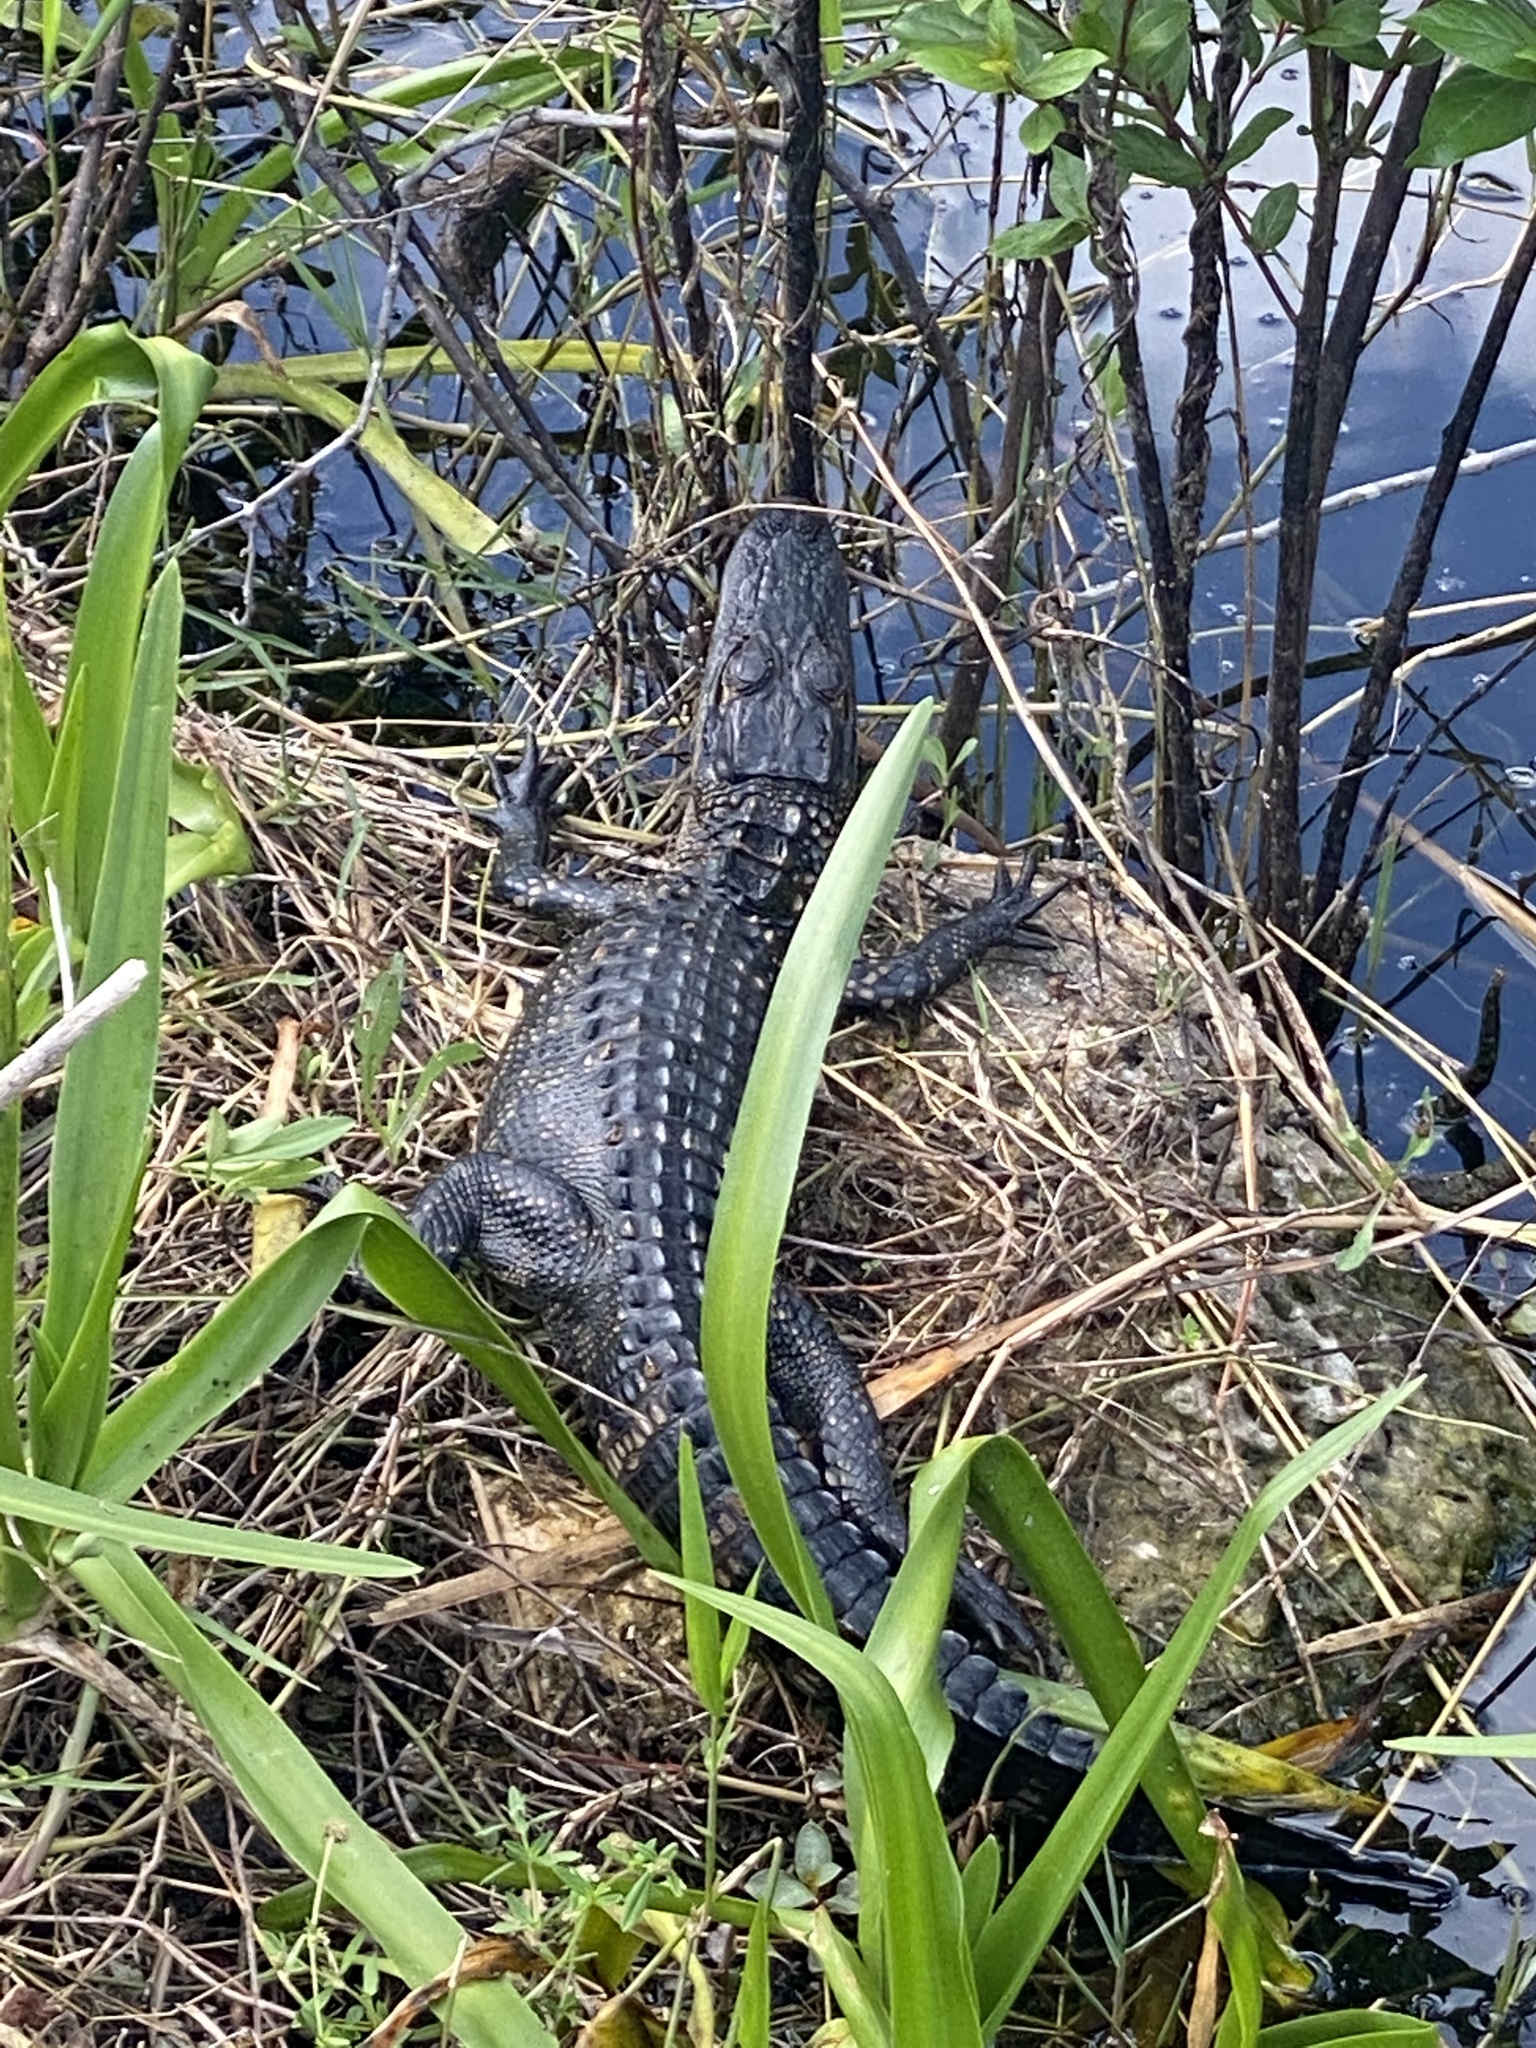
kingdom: Animalia
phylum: Chordata
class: Crocodylia
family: Alligatoridae
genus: Alligator
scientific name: Alligator mississippiensis
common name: American alligator
